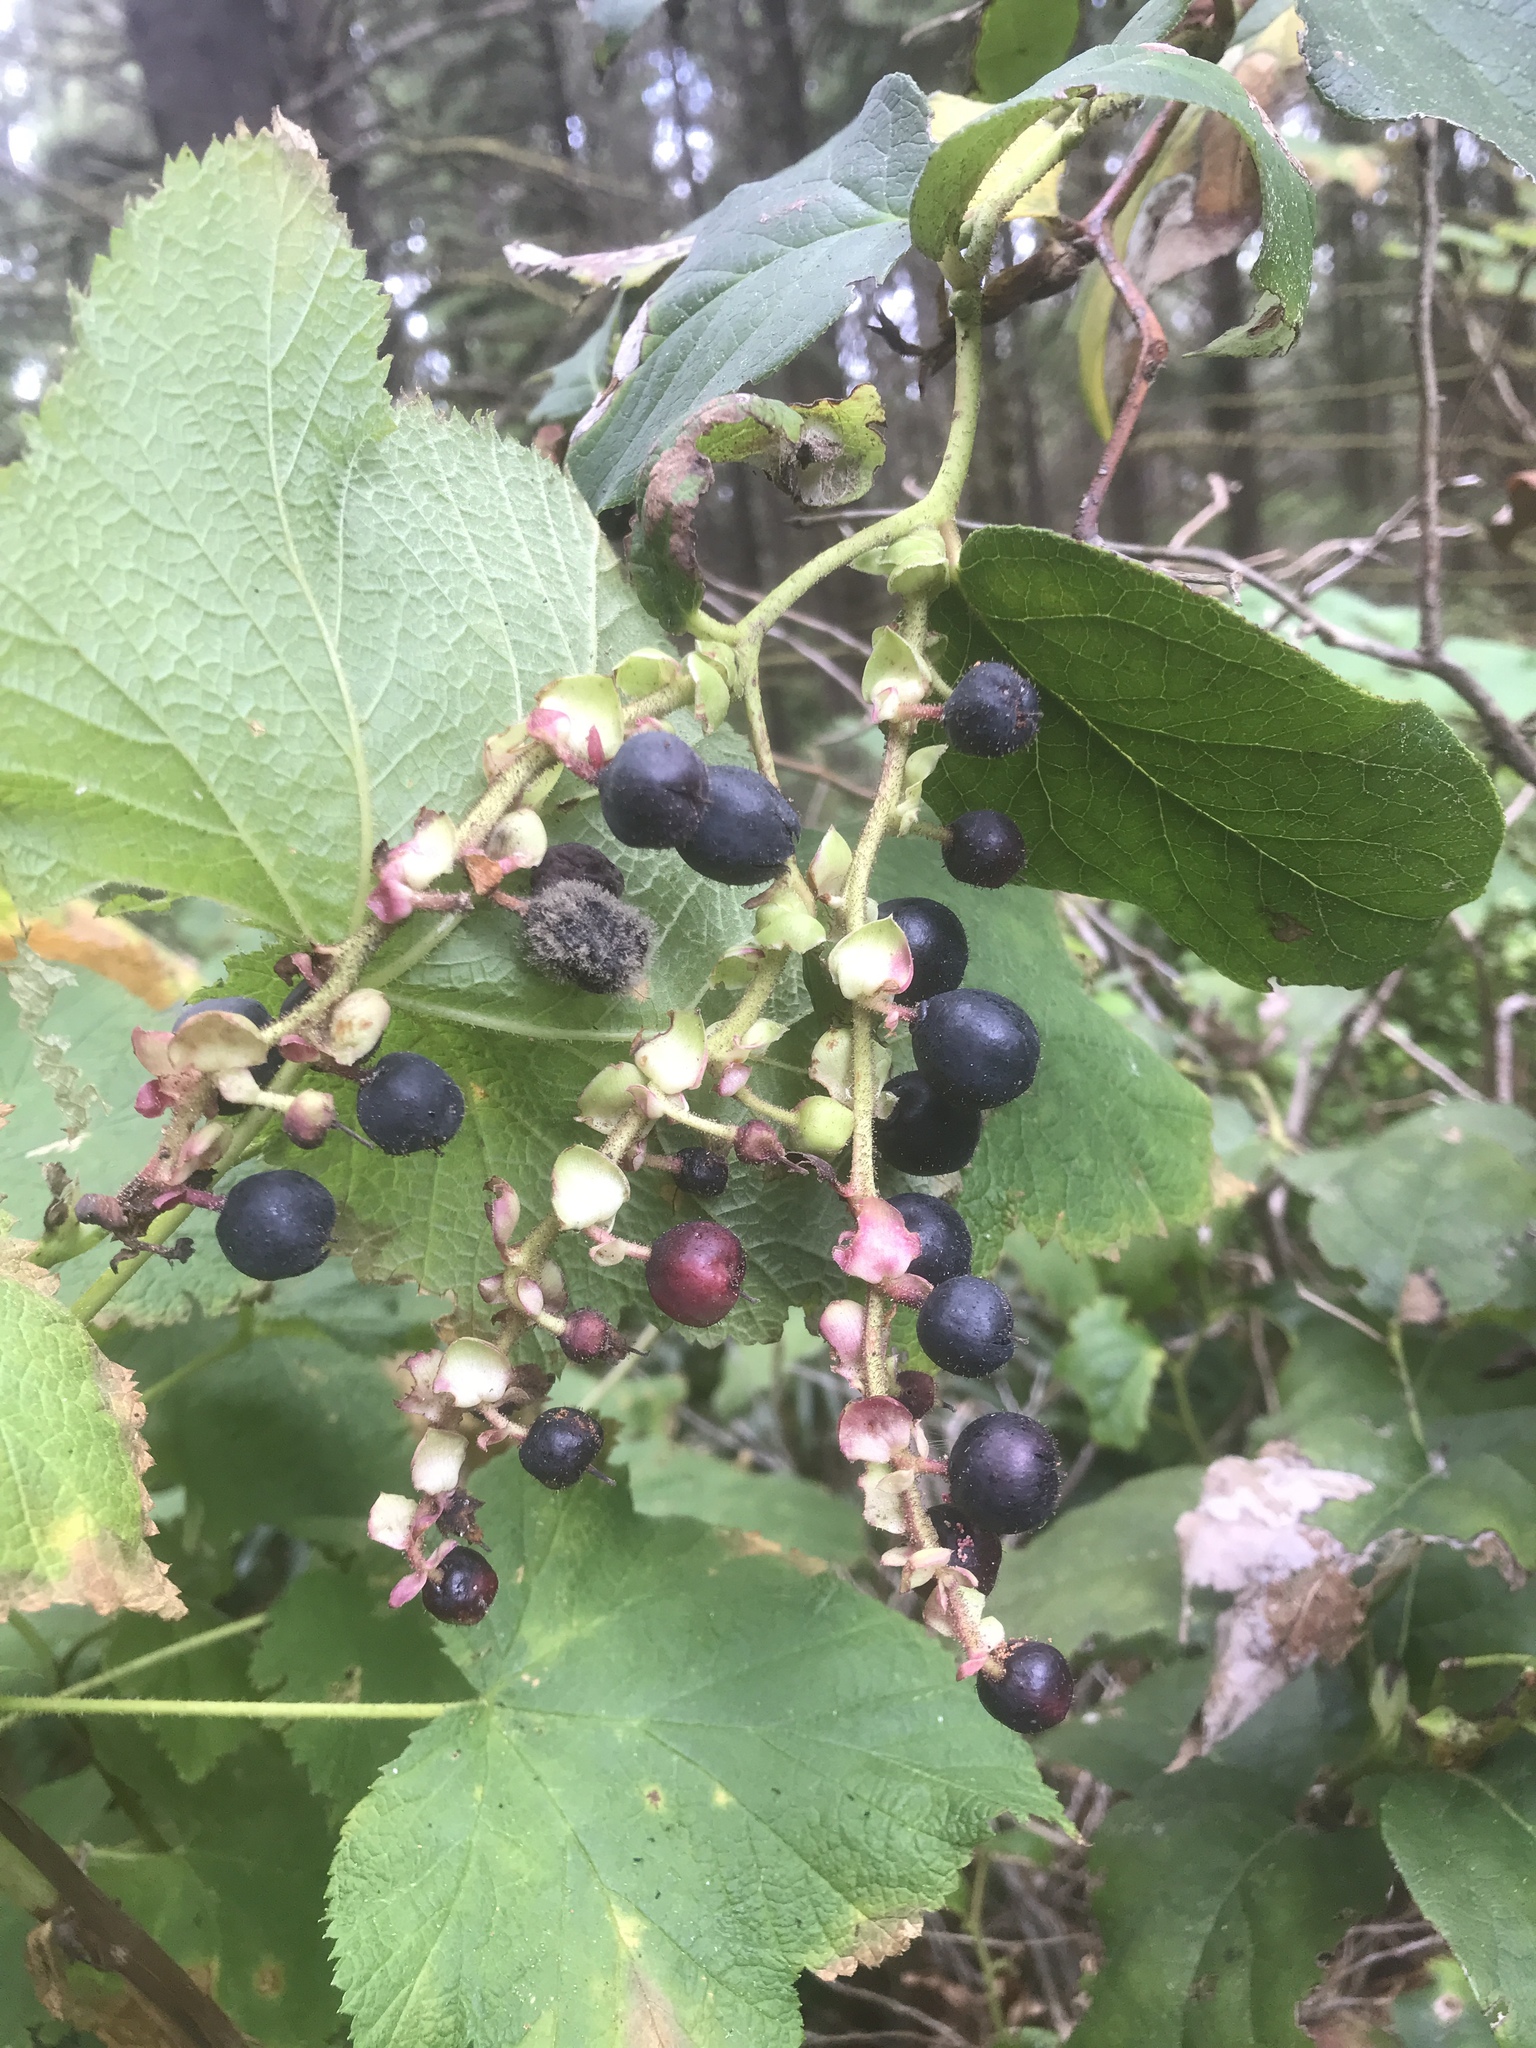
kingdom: Plantae
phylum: Tracheophyta
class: Magnoliopsida
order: Ericales
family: Ericaceae
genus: Gaultheria
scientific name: Gaultheria shallon
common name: Shallon
